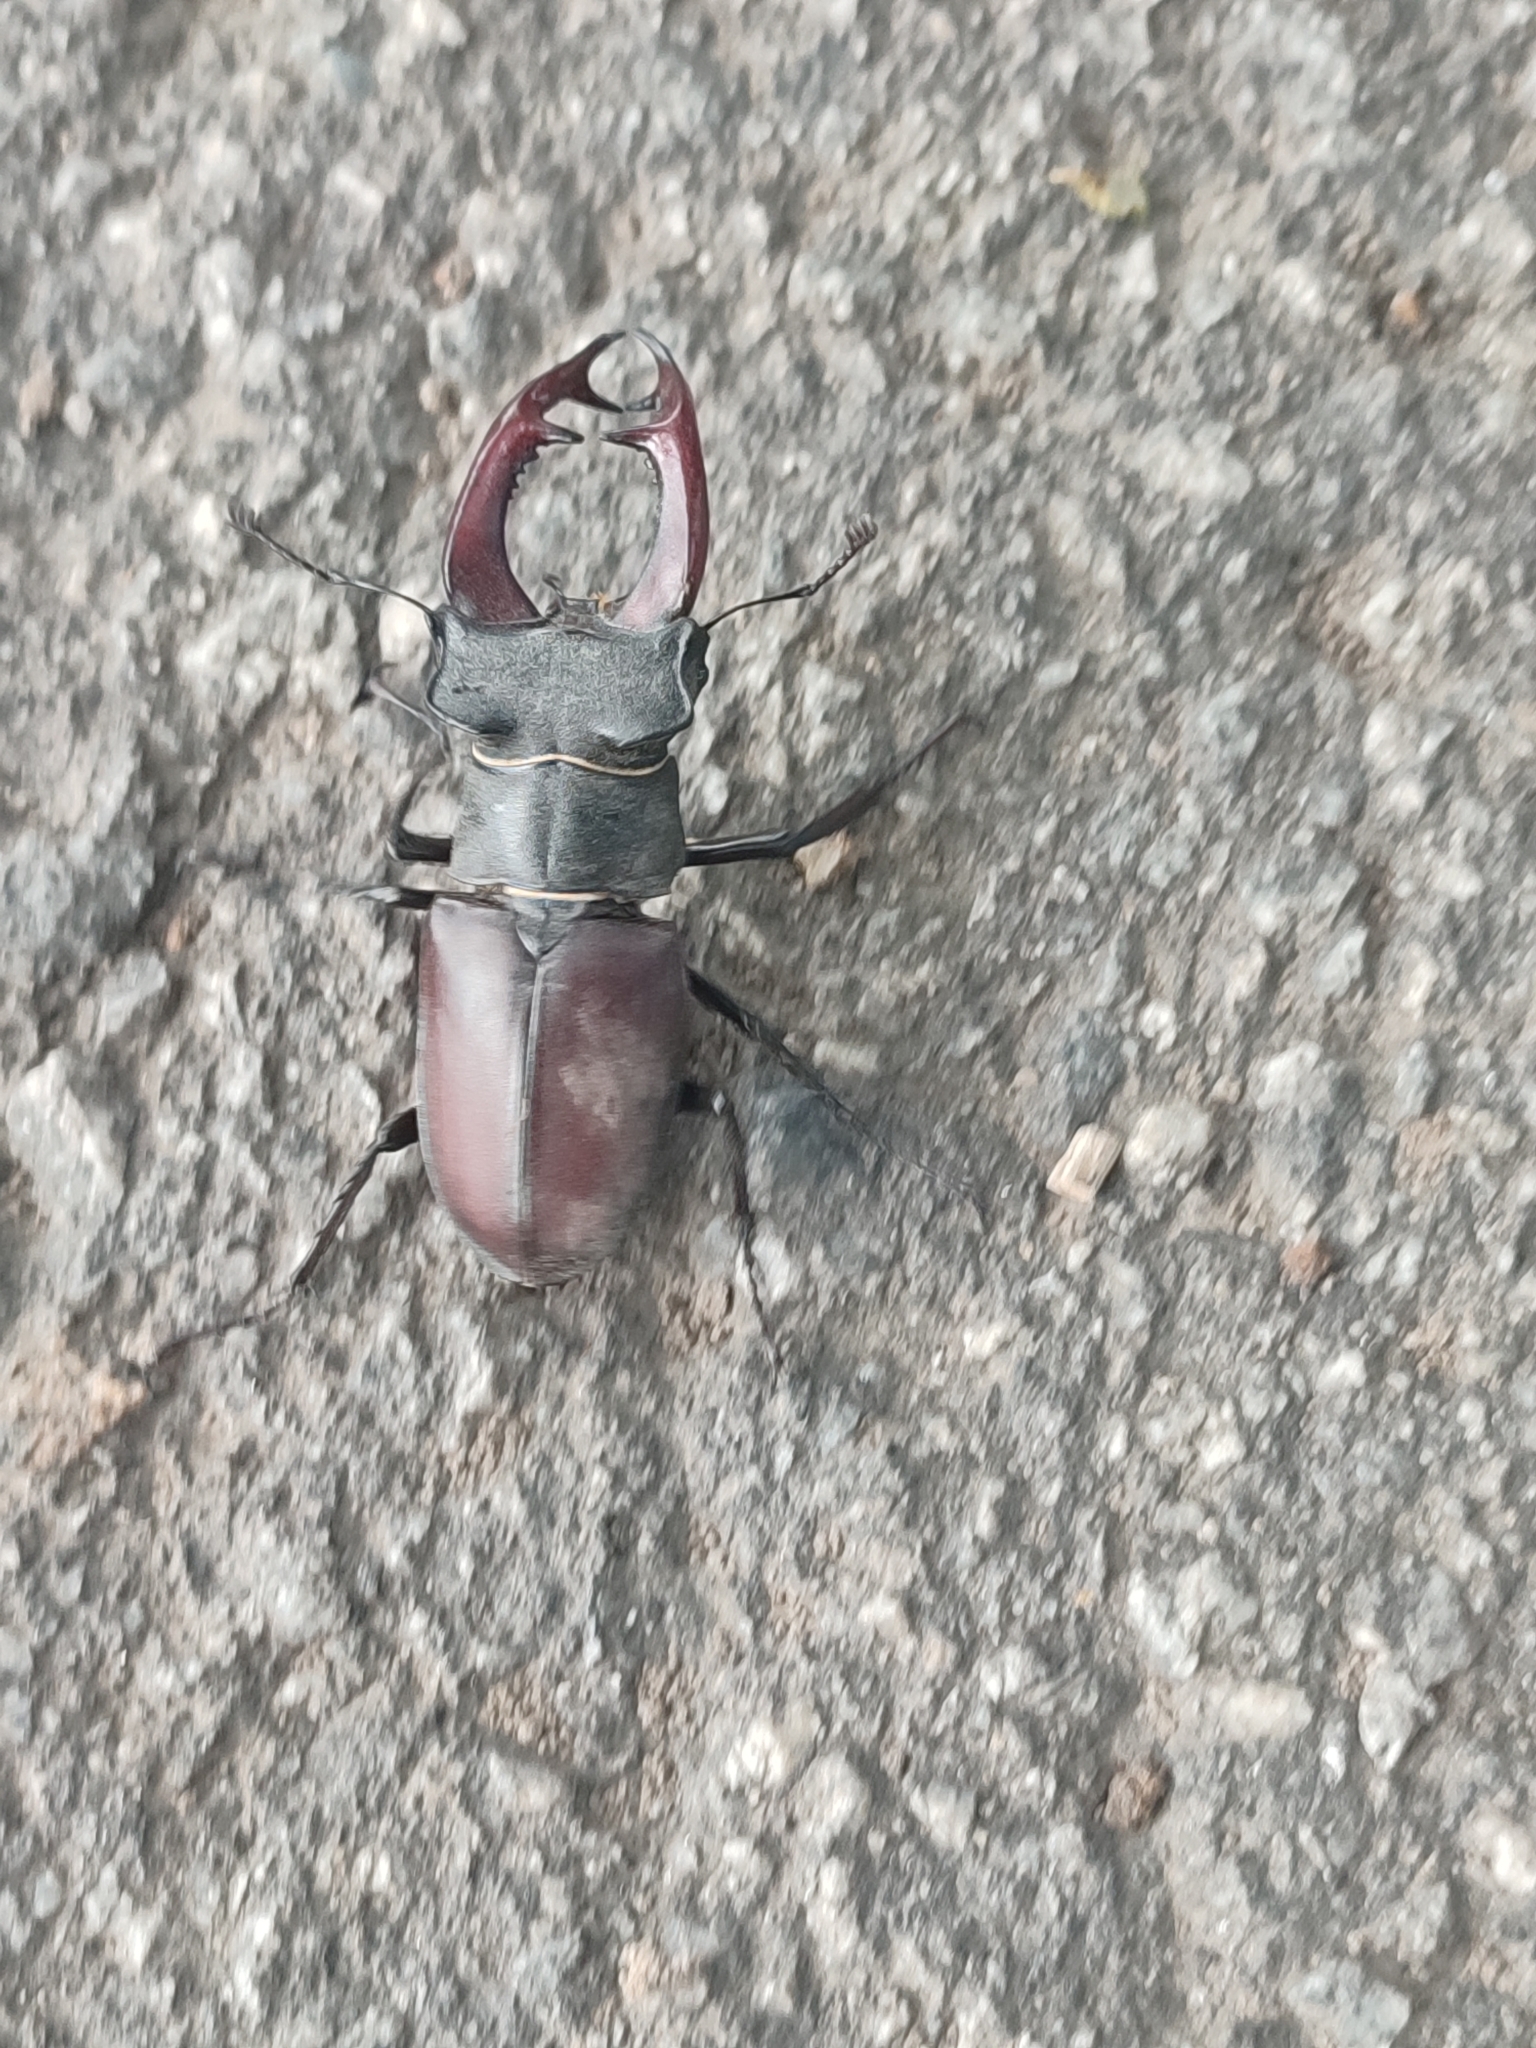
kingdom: Animalia
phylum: Arthropoda
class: Insecta
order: Coleoptera
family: Lucanidae
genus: Lucanus
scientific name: Lucanus cervus
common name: Stag beetle
